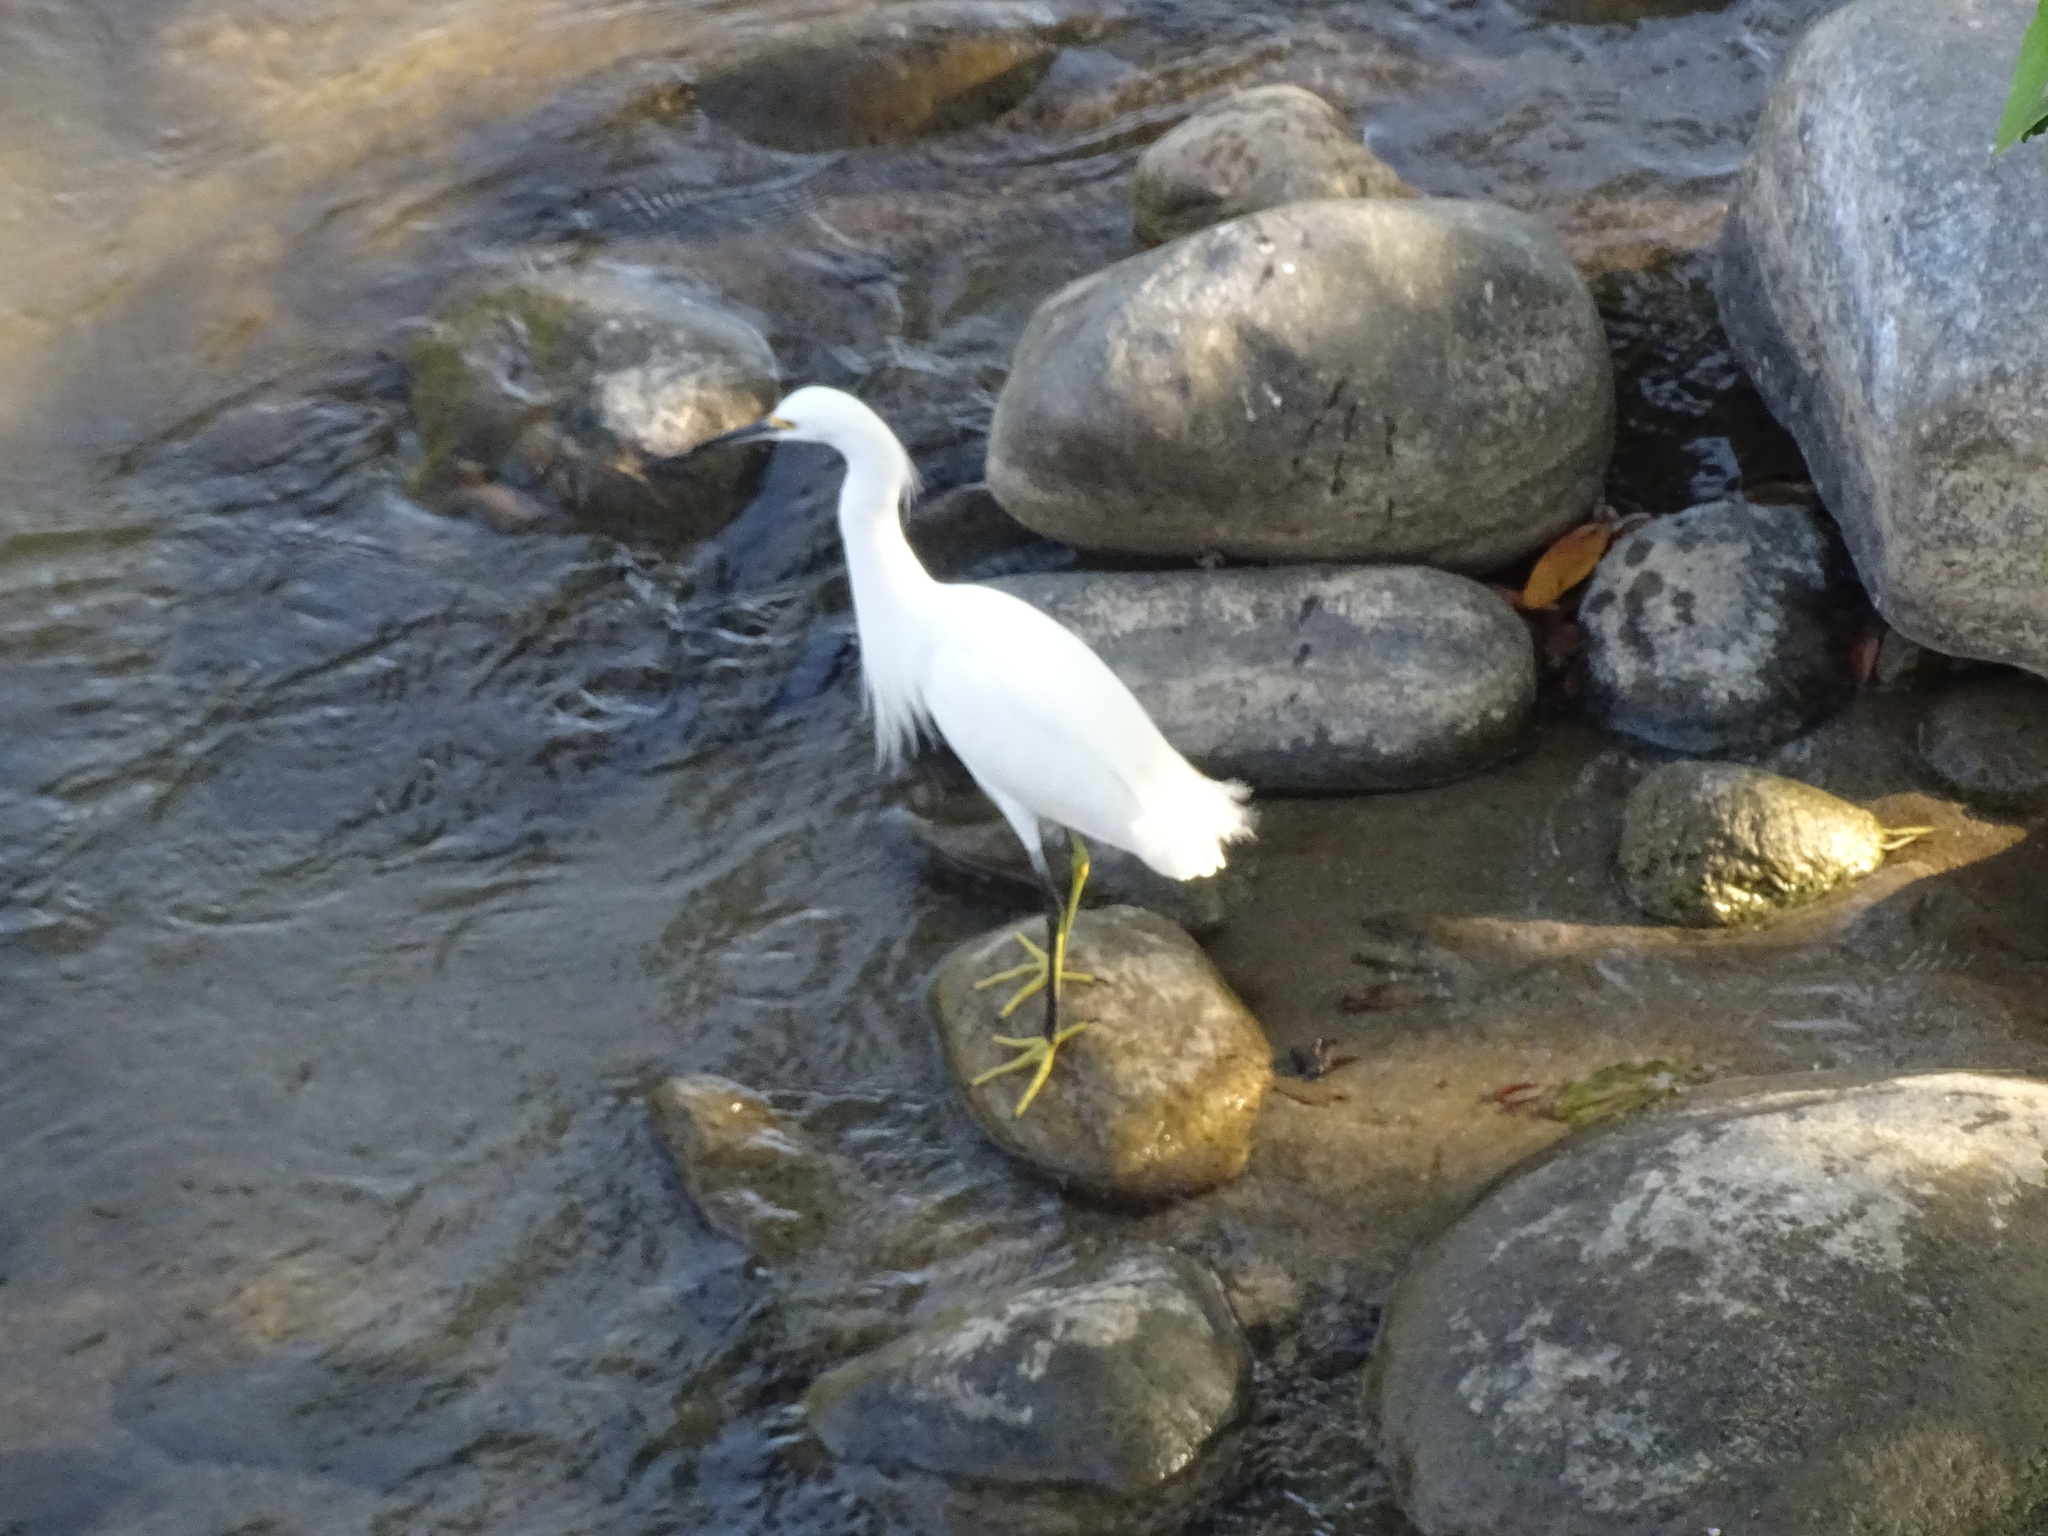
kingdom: Animalia
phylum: Chordata
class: Aves
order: Pelecaniformes
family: Ardeidae
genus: Egretta
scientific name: Egretta thula
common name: Snowy egret
